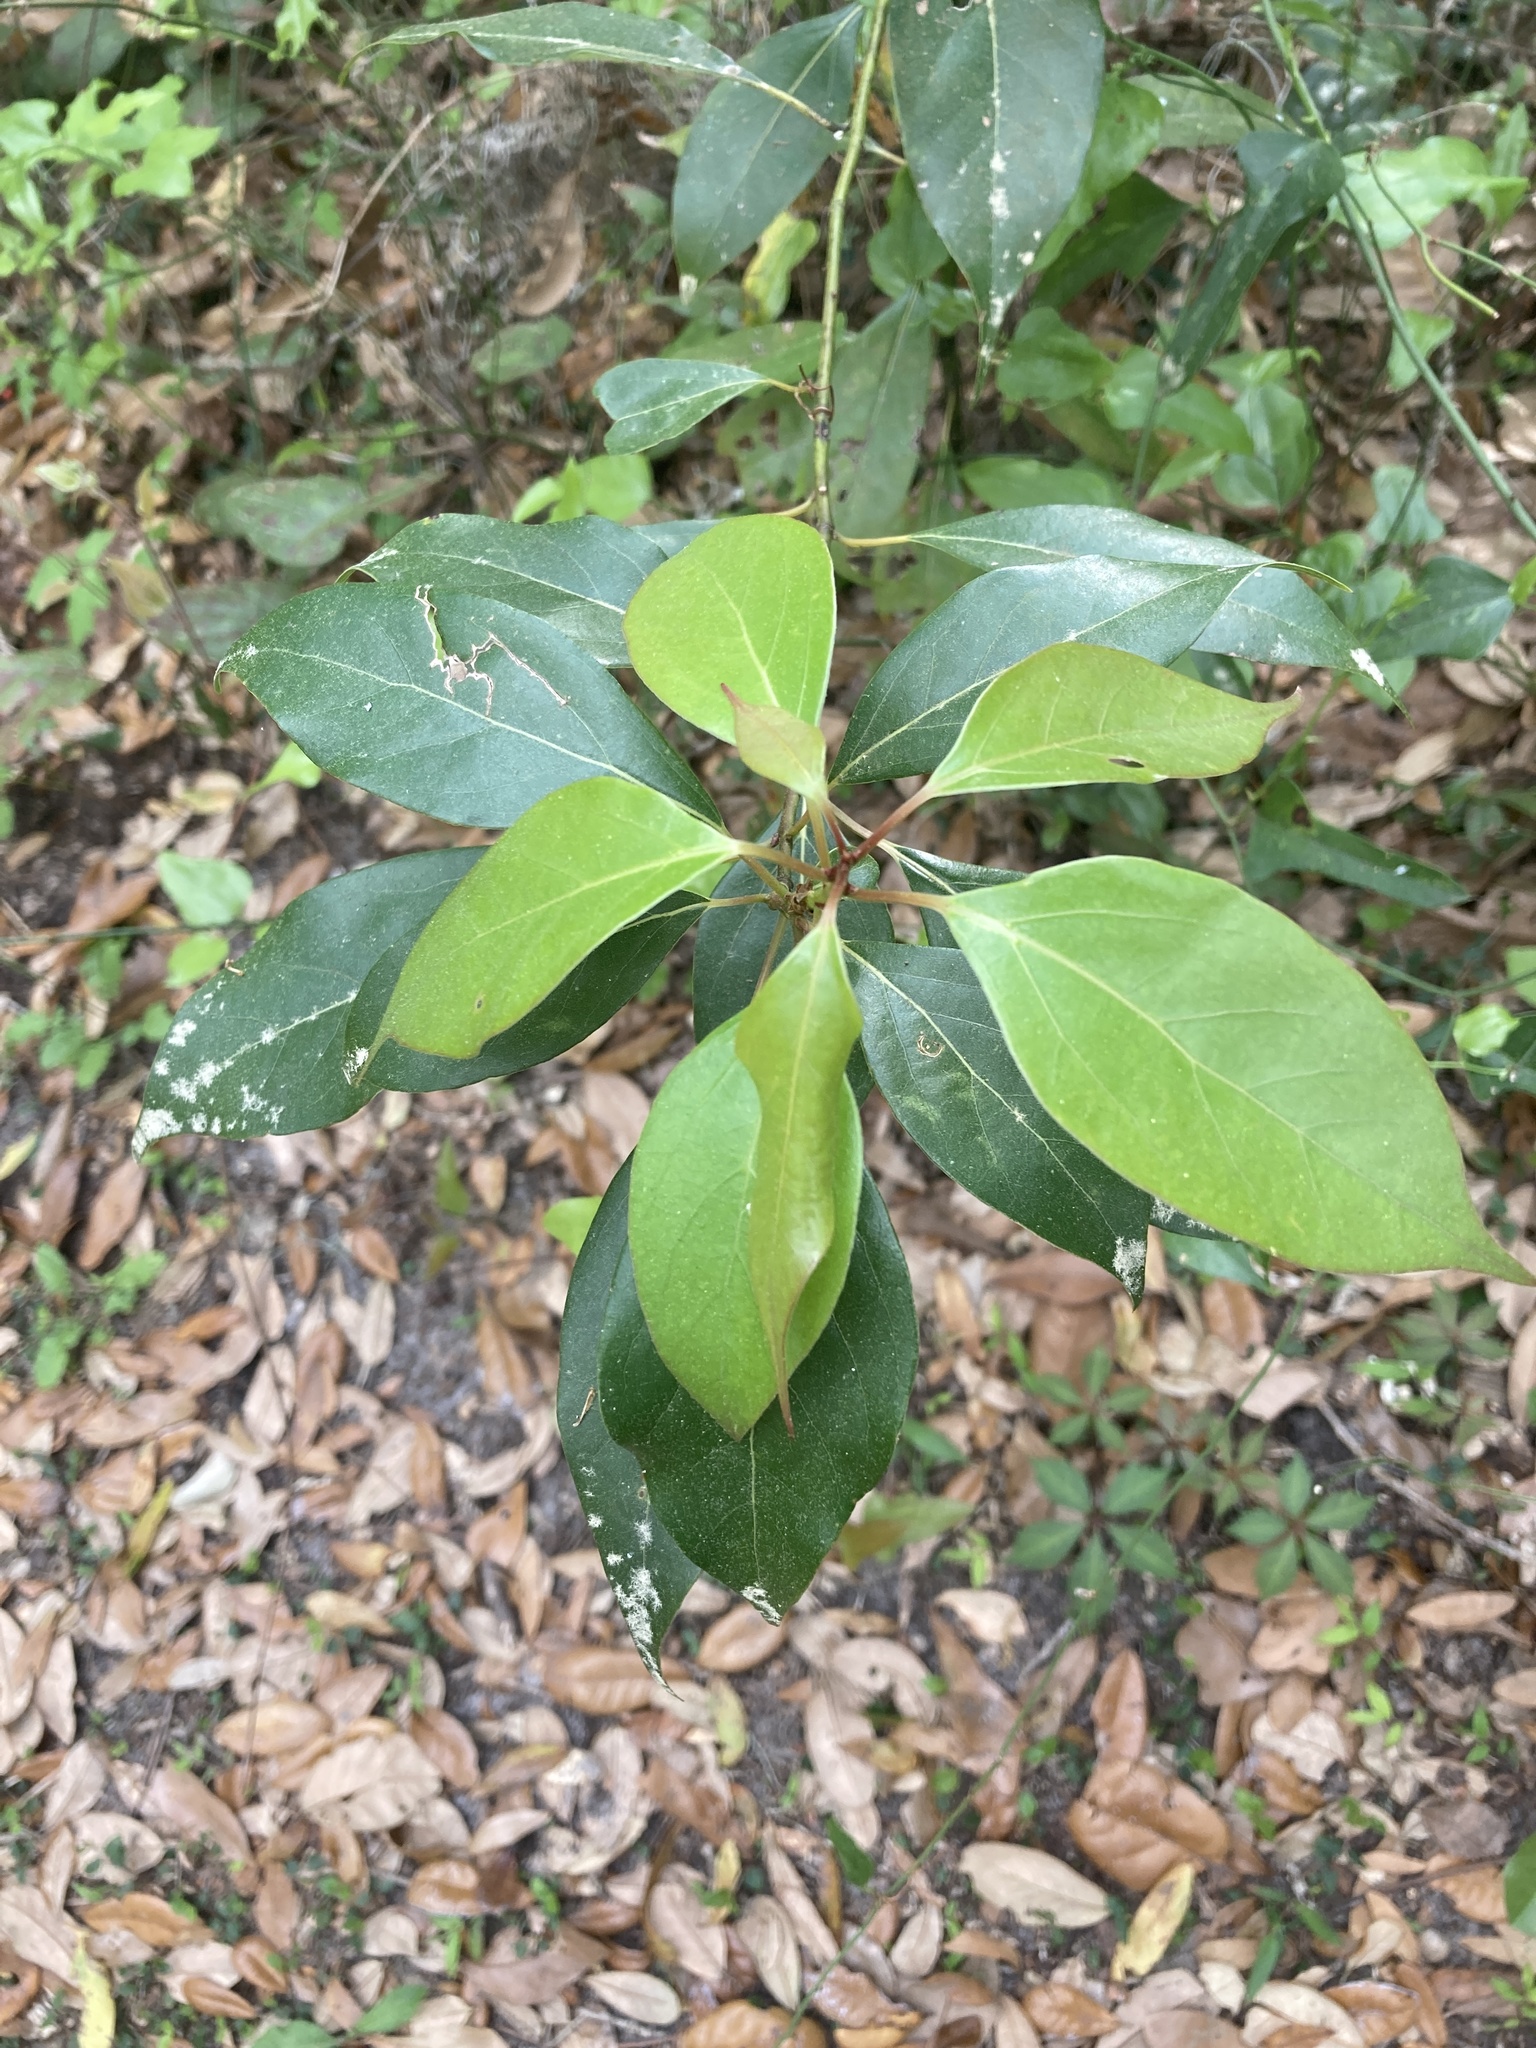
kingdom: Plantae
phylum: Tracheophyta
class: Magnoliopsida
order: Laurales
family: Lauraceae
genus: Cinnamomum
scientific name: Cinnamomum camphora
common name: Camphortree
